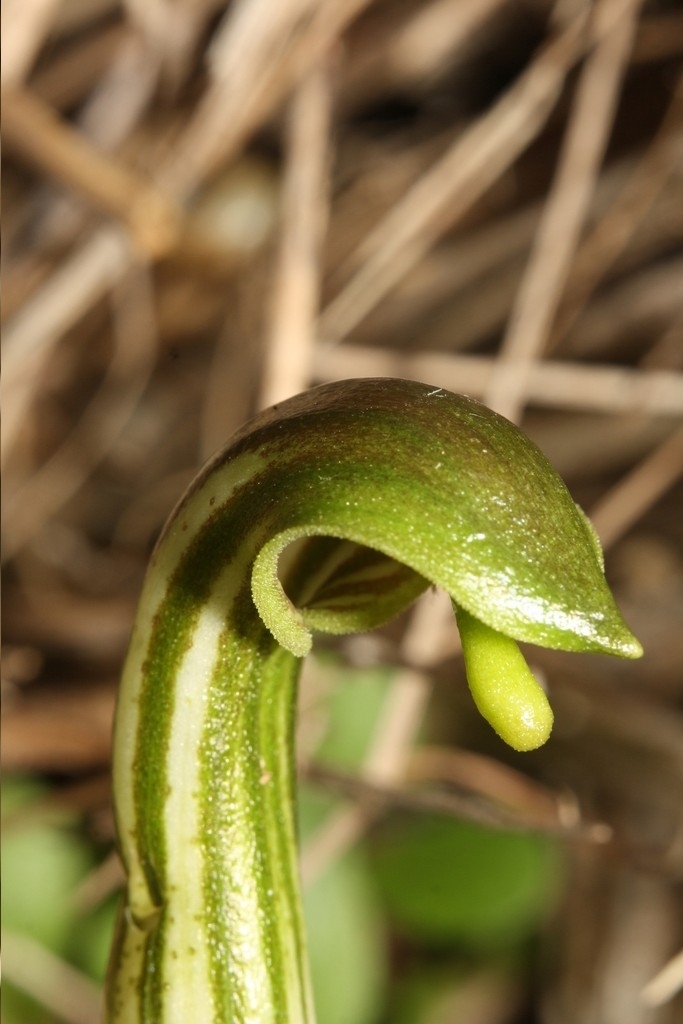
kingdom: Plantae
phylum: Tracheophyta
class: Liliopsida
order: Alismatales
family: Araceae
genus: Arisarum
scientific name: Arisarum vulgare
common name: Common arisarum
